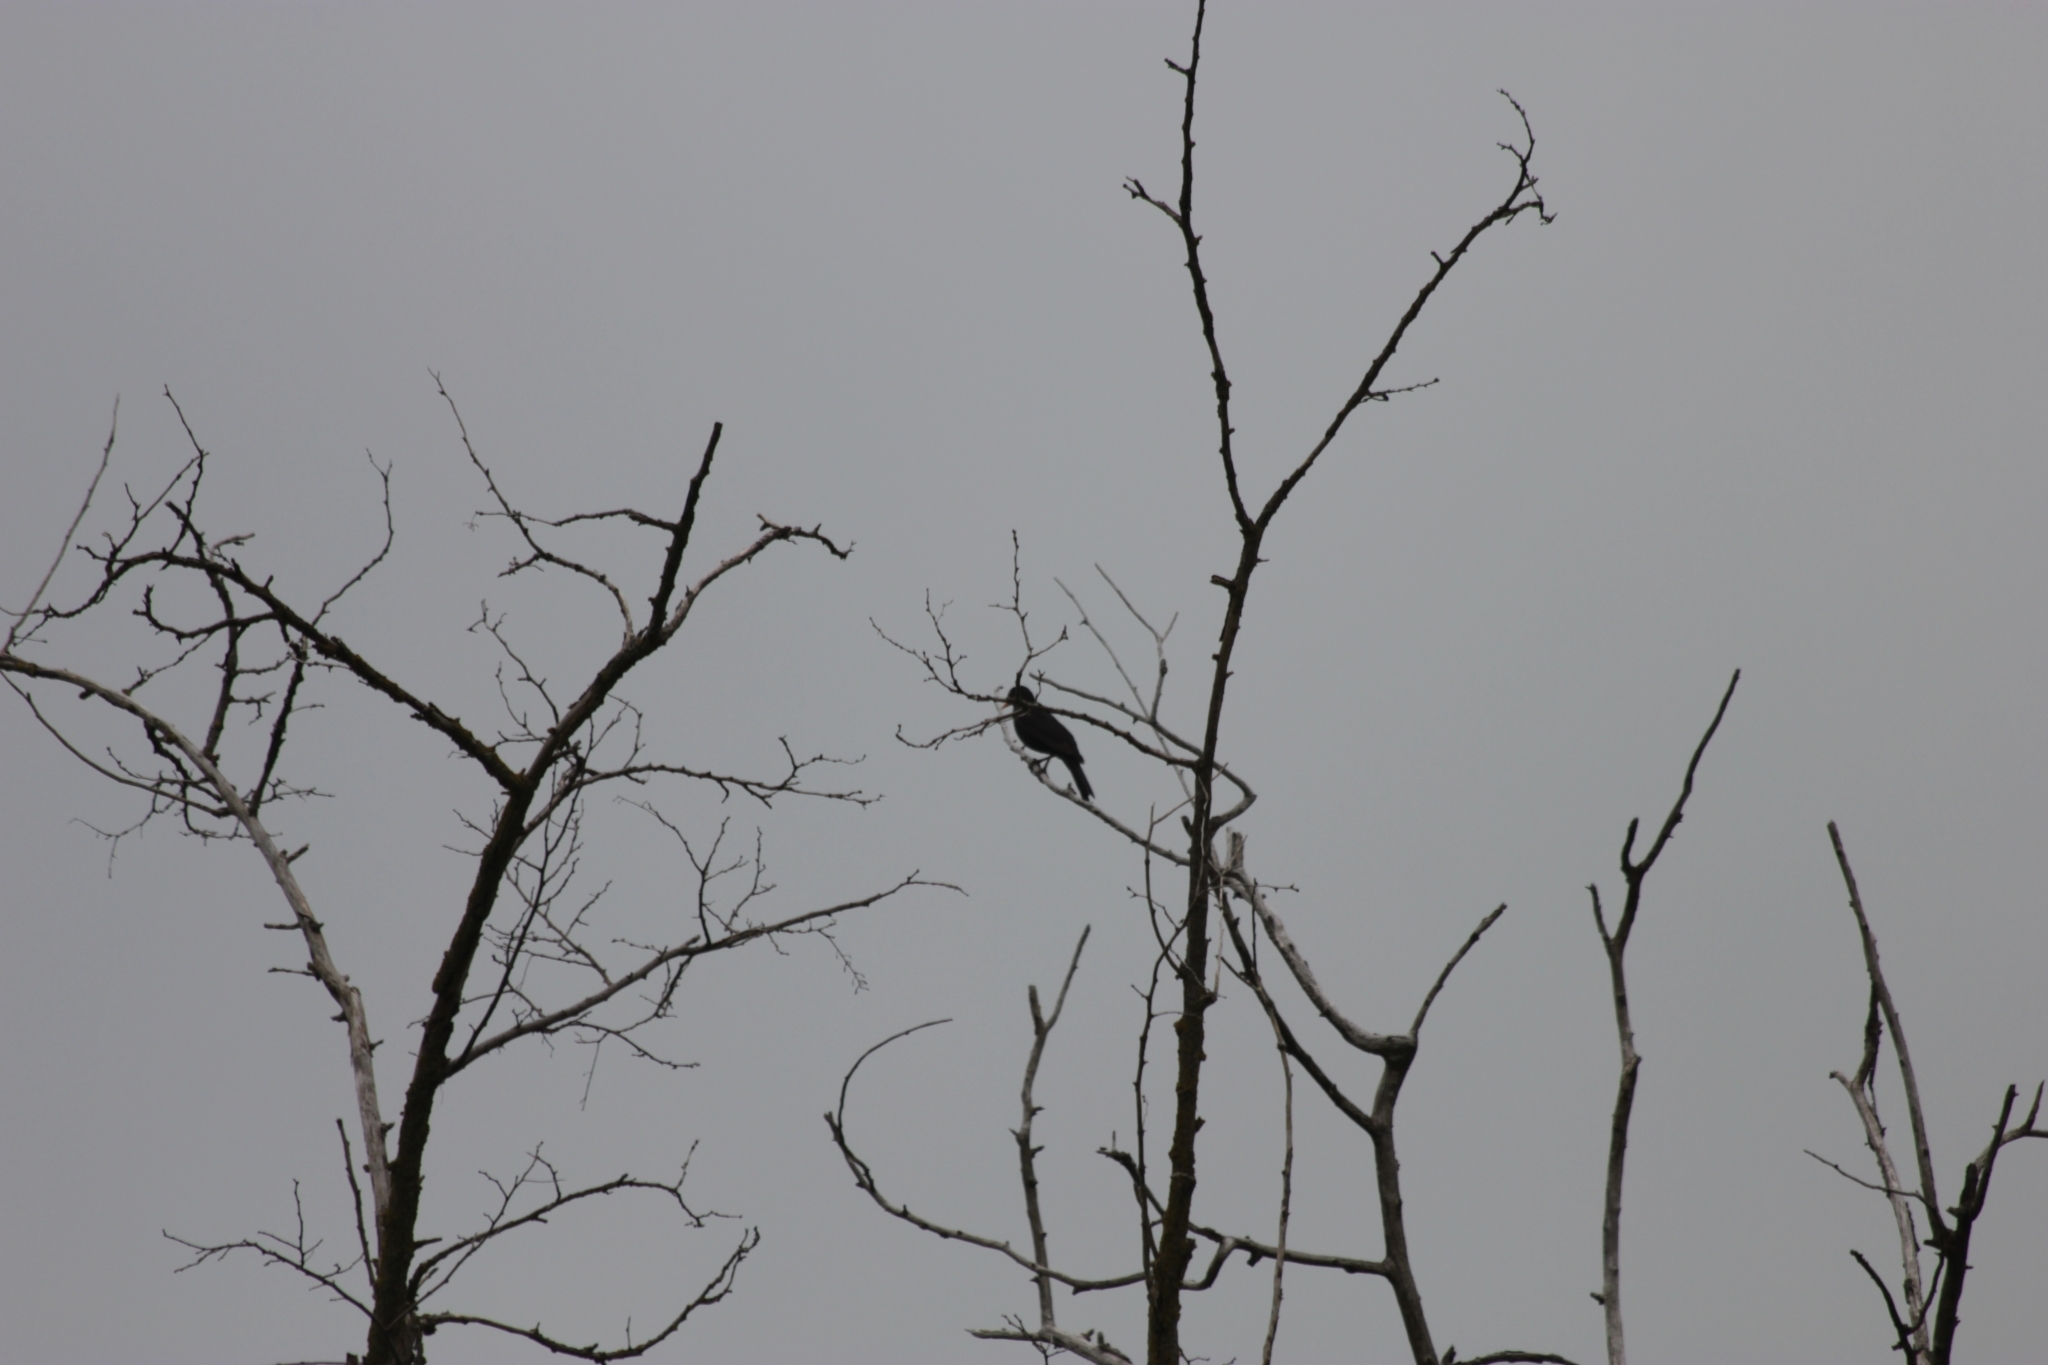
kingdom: Animalia
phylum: Chordata
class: Aves
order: Passeriformes
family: Turdidae
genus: Turdus
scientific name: Turdus merula
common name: Common blackbird
